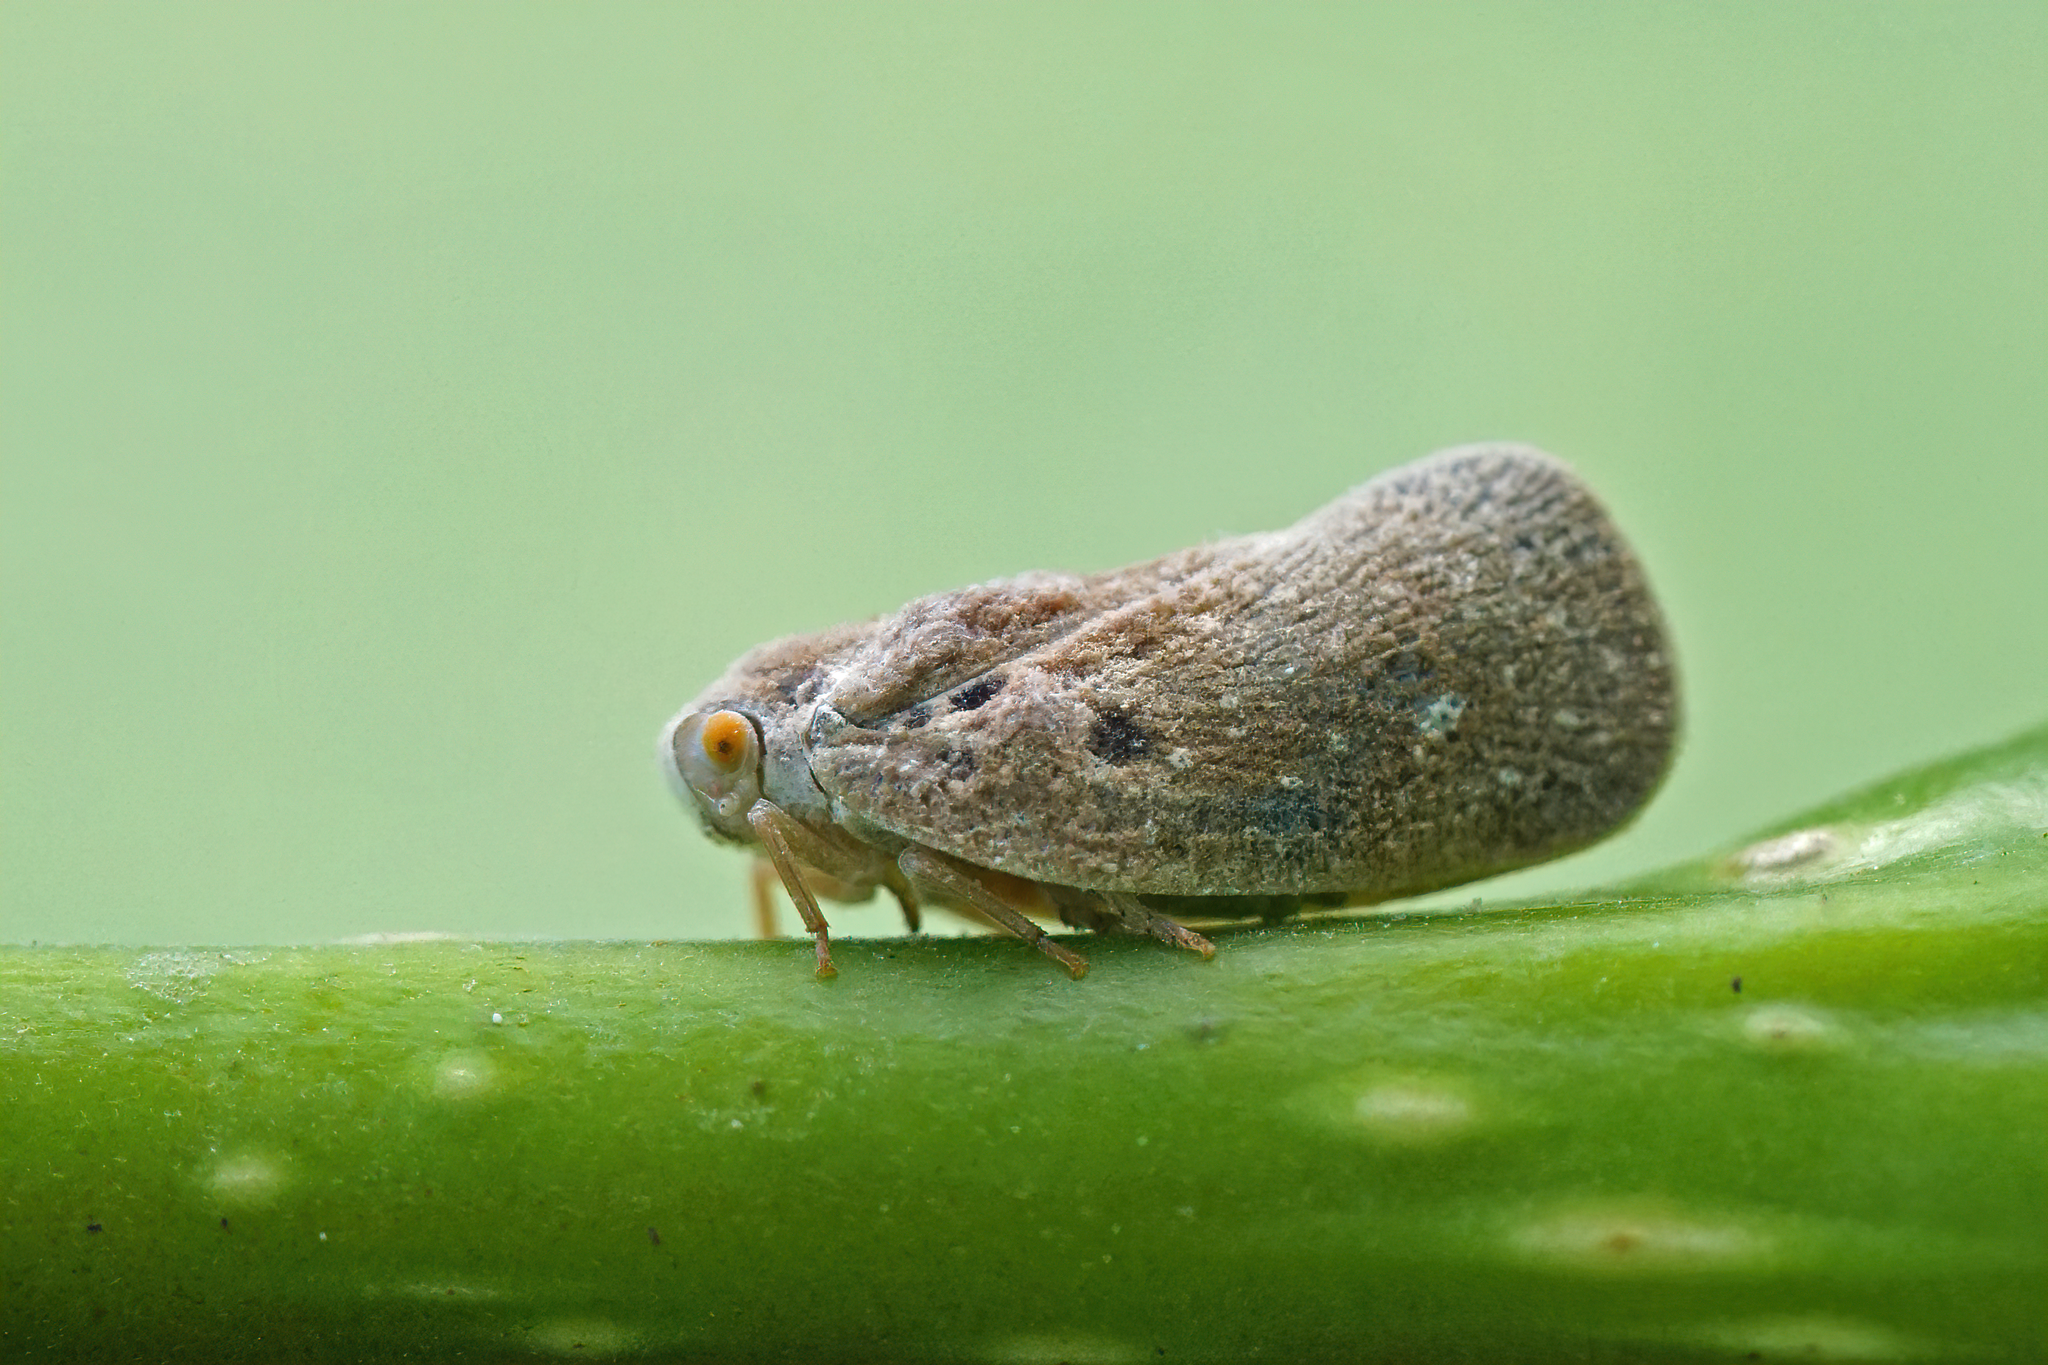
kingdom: Animalia
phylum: Arthropoda
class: Insecta
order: Hemiptera
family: Flatidae
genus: Metcalfa
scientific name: Metcalfa pruinosa
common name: Citrus flatid planthopper
